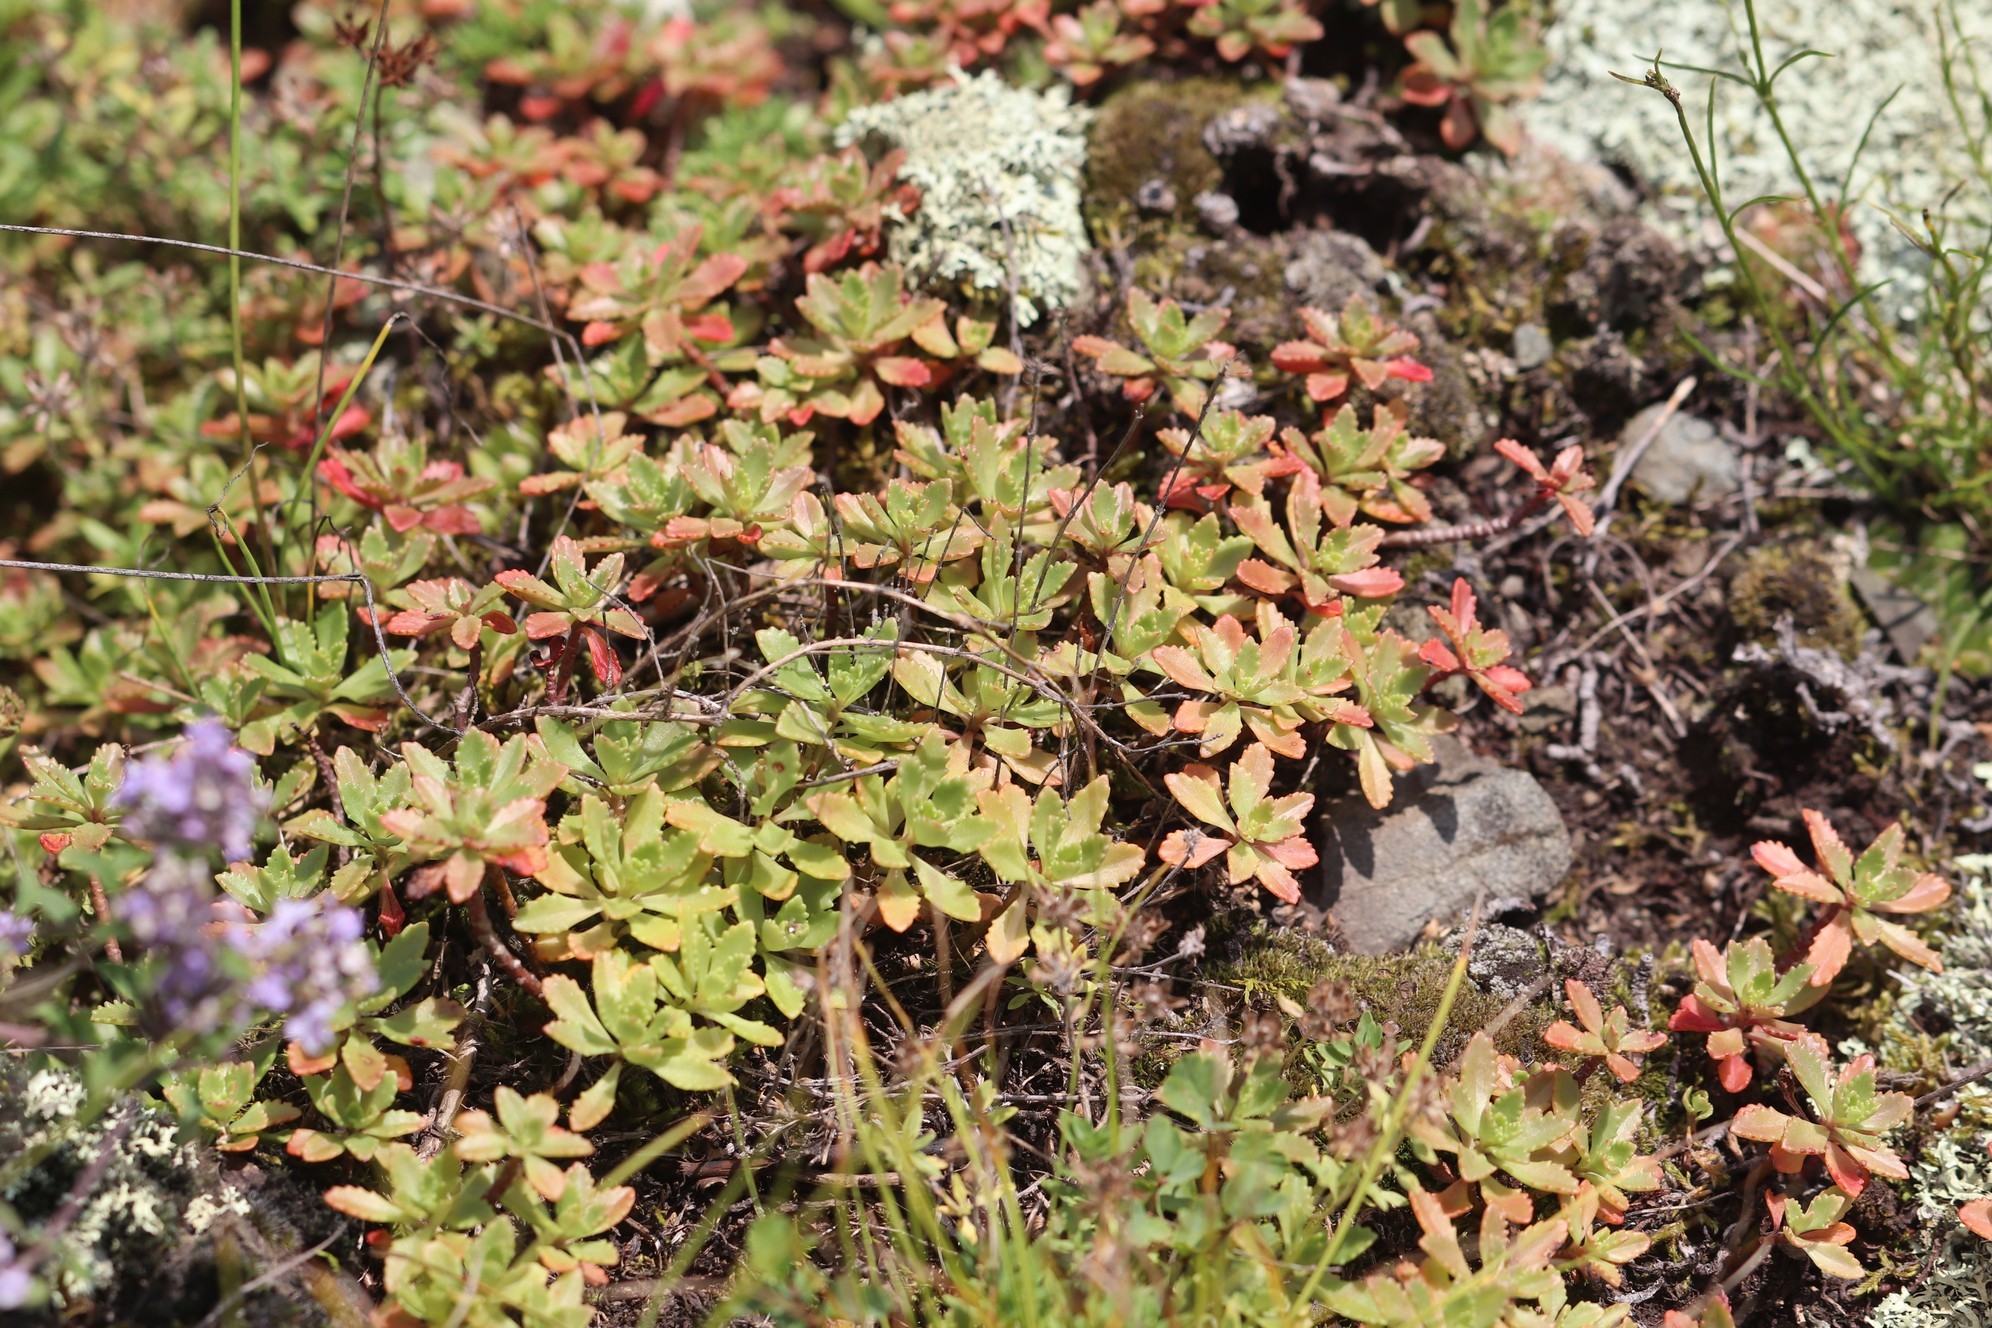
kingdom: Plantae
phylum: Tracheophyta
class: Magnoliopsida
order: Saxifragales
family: Crassulaceae
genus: Phedimus
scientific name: Phedimus hybridus
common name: Hybrid stonecrop
